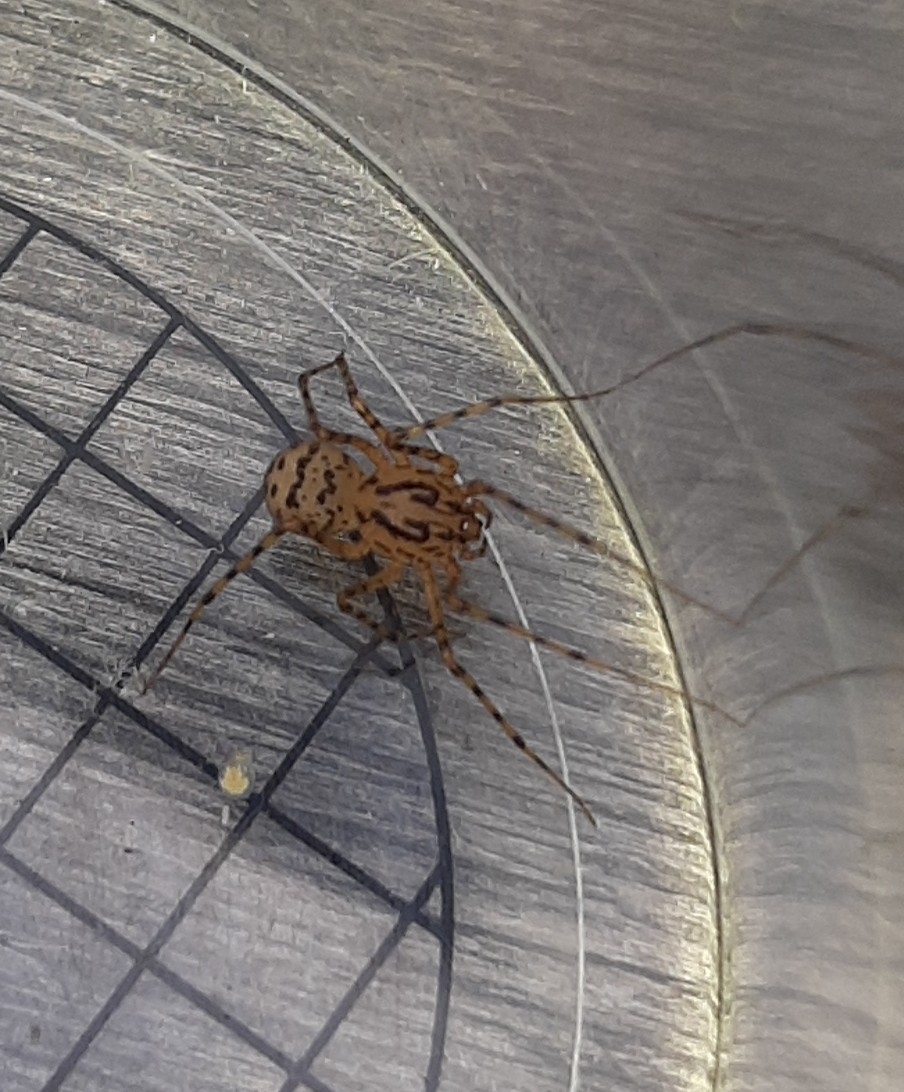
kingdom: Animalia
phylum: Arthropoda
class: Arachnida
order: Araneae
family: Scytodidae
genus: Scytodes
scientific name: Scytodes thoracica
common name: Spitting spider
